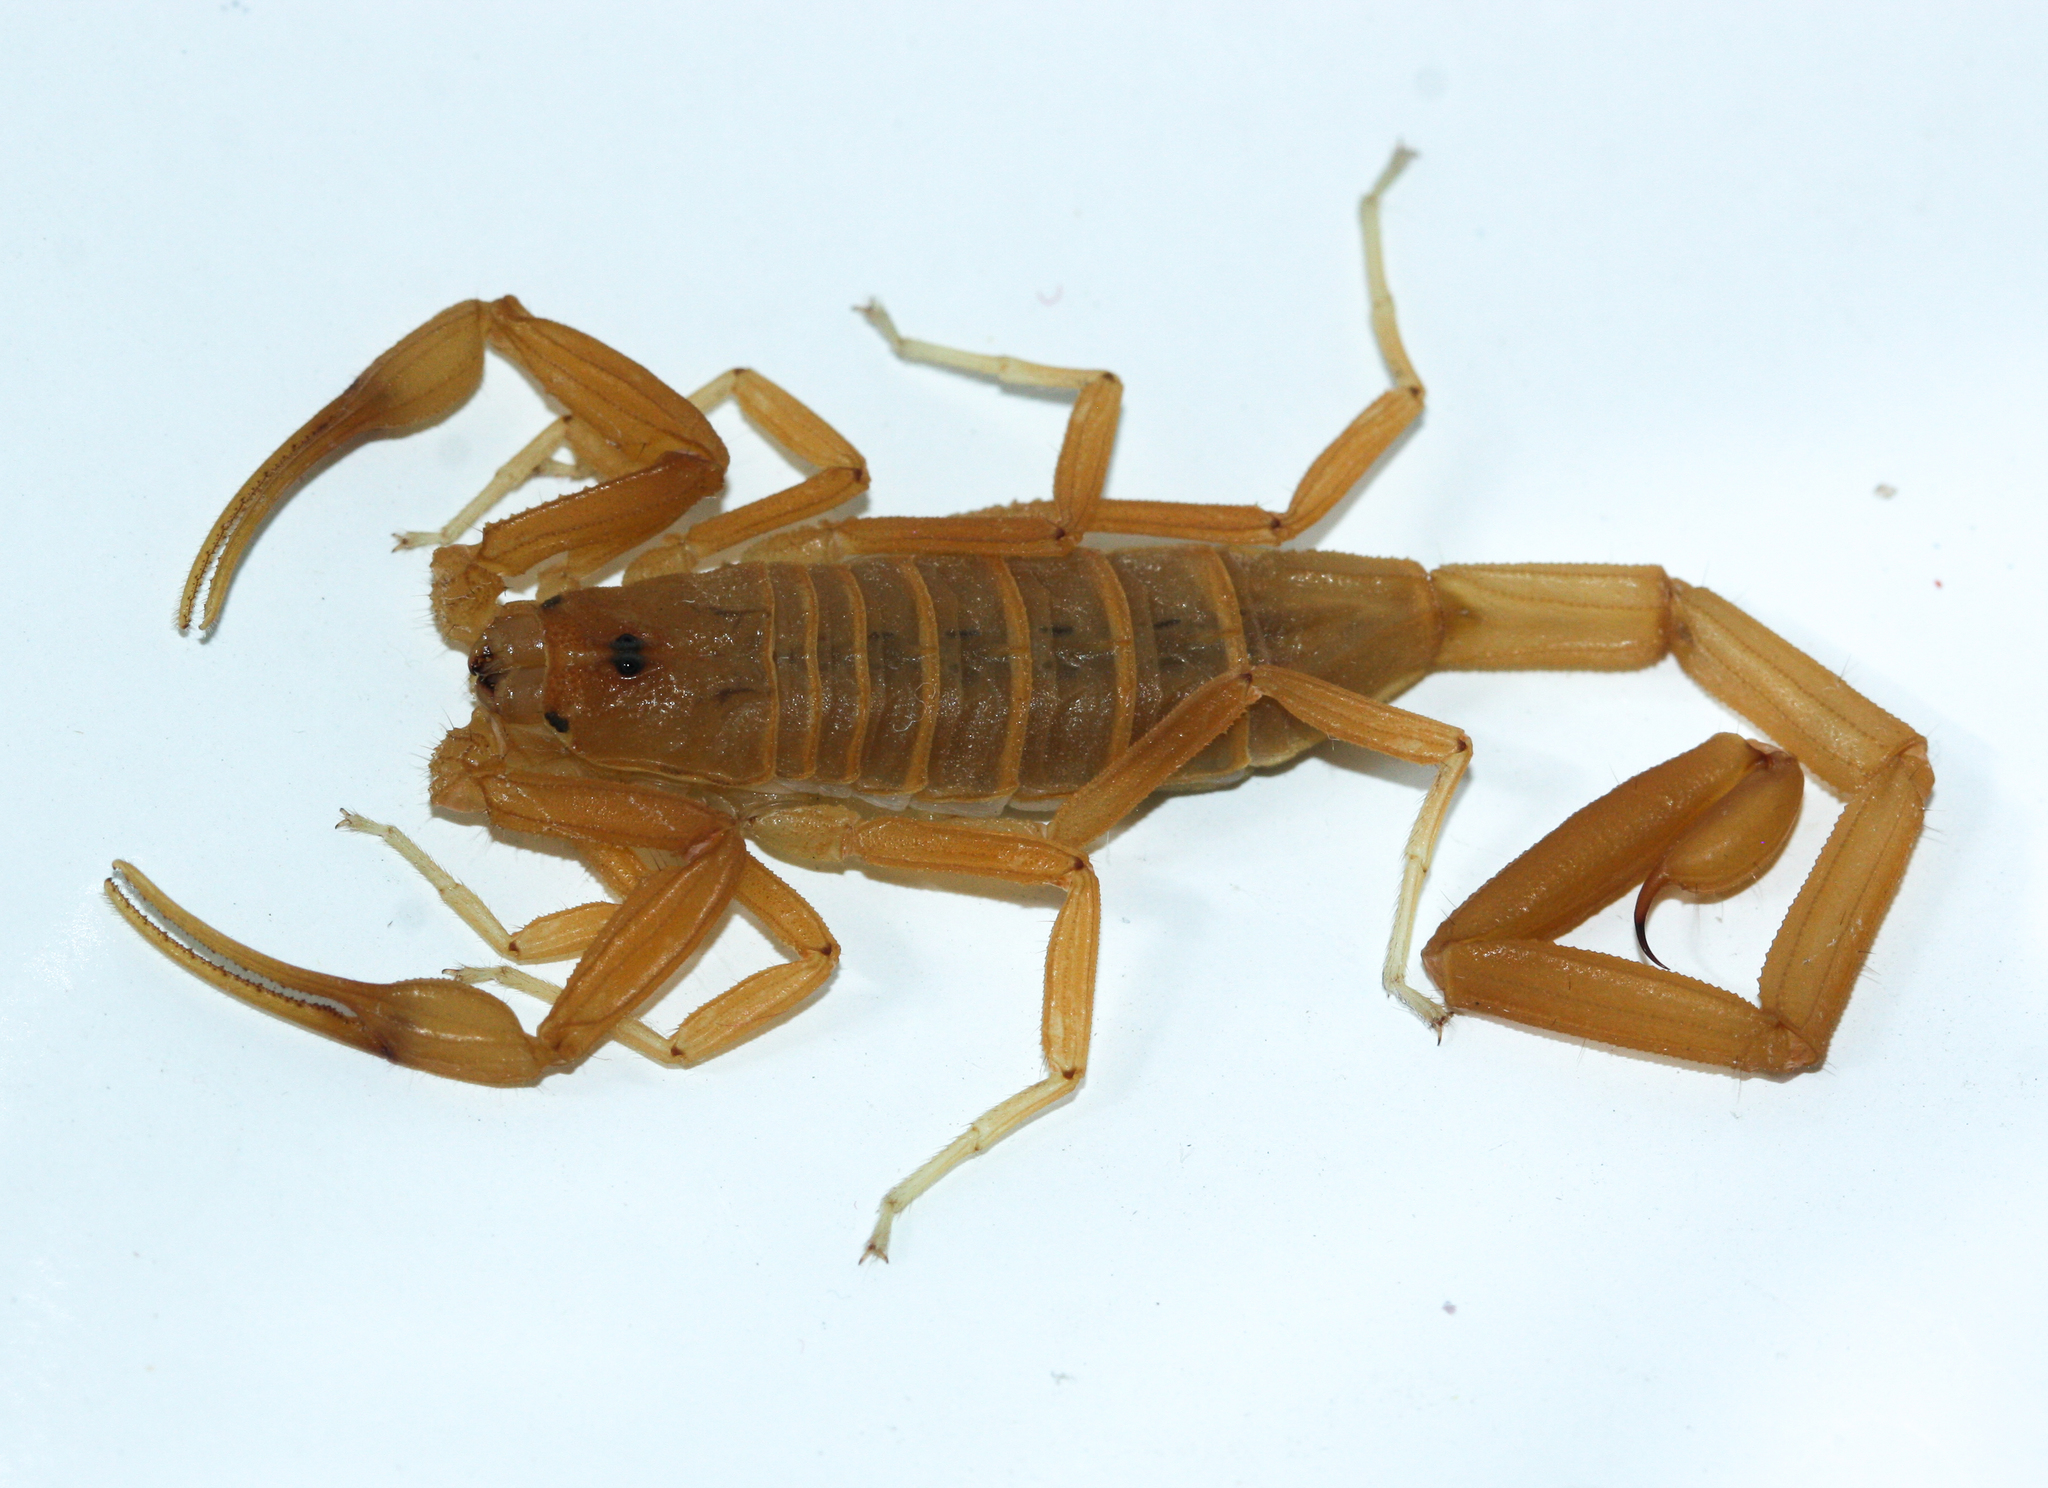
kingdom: Animalia
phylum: Arthropoda
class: Arachnida
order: Scorpiones
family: Buthidae
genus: Centruroides
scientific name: Centruroides sculpturatus
